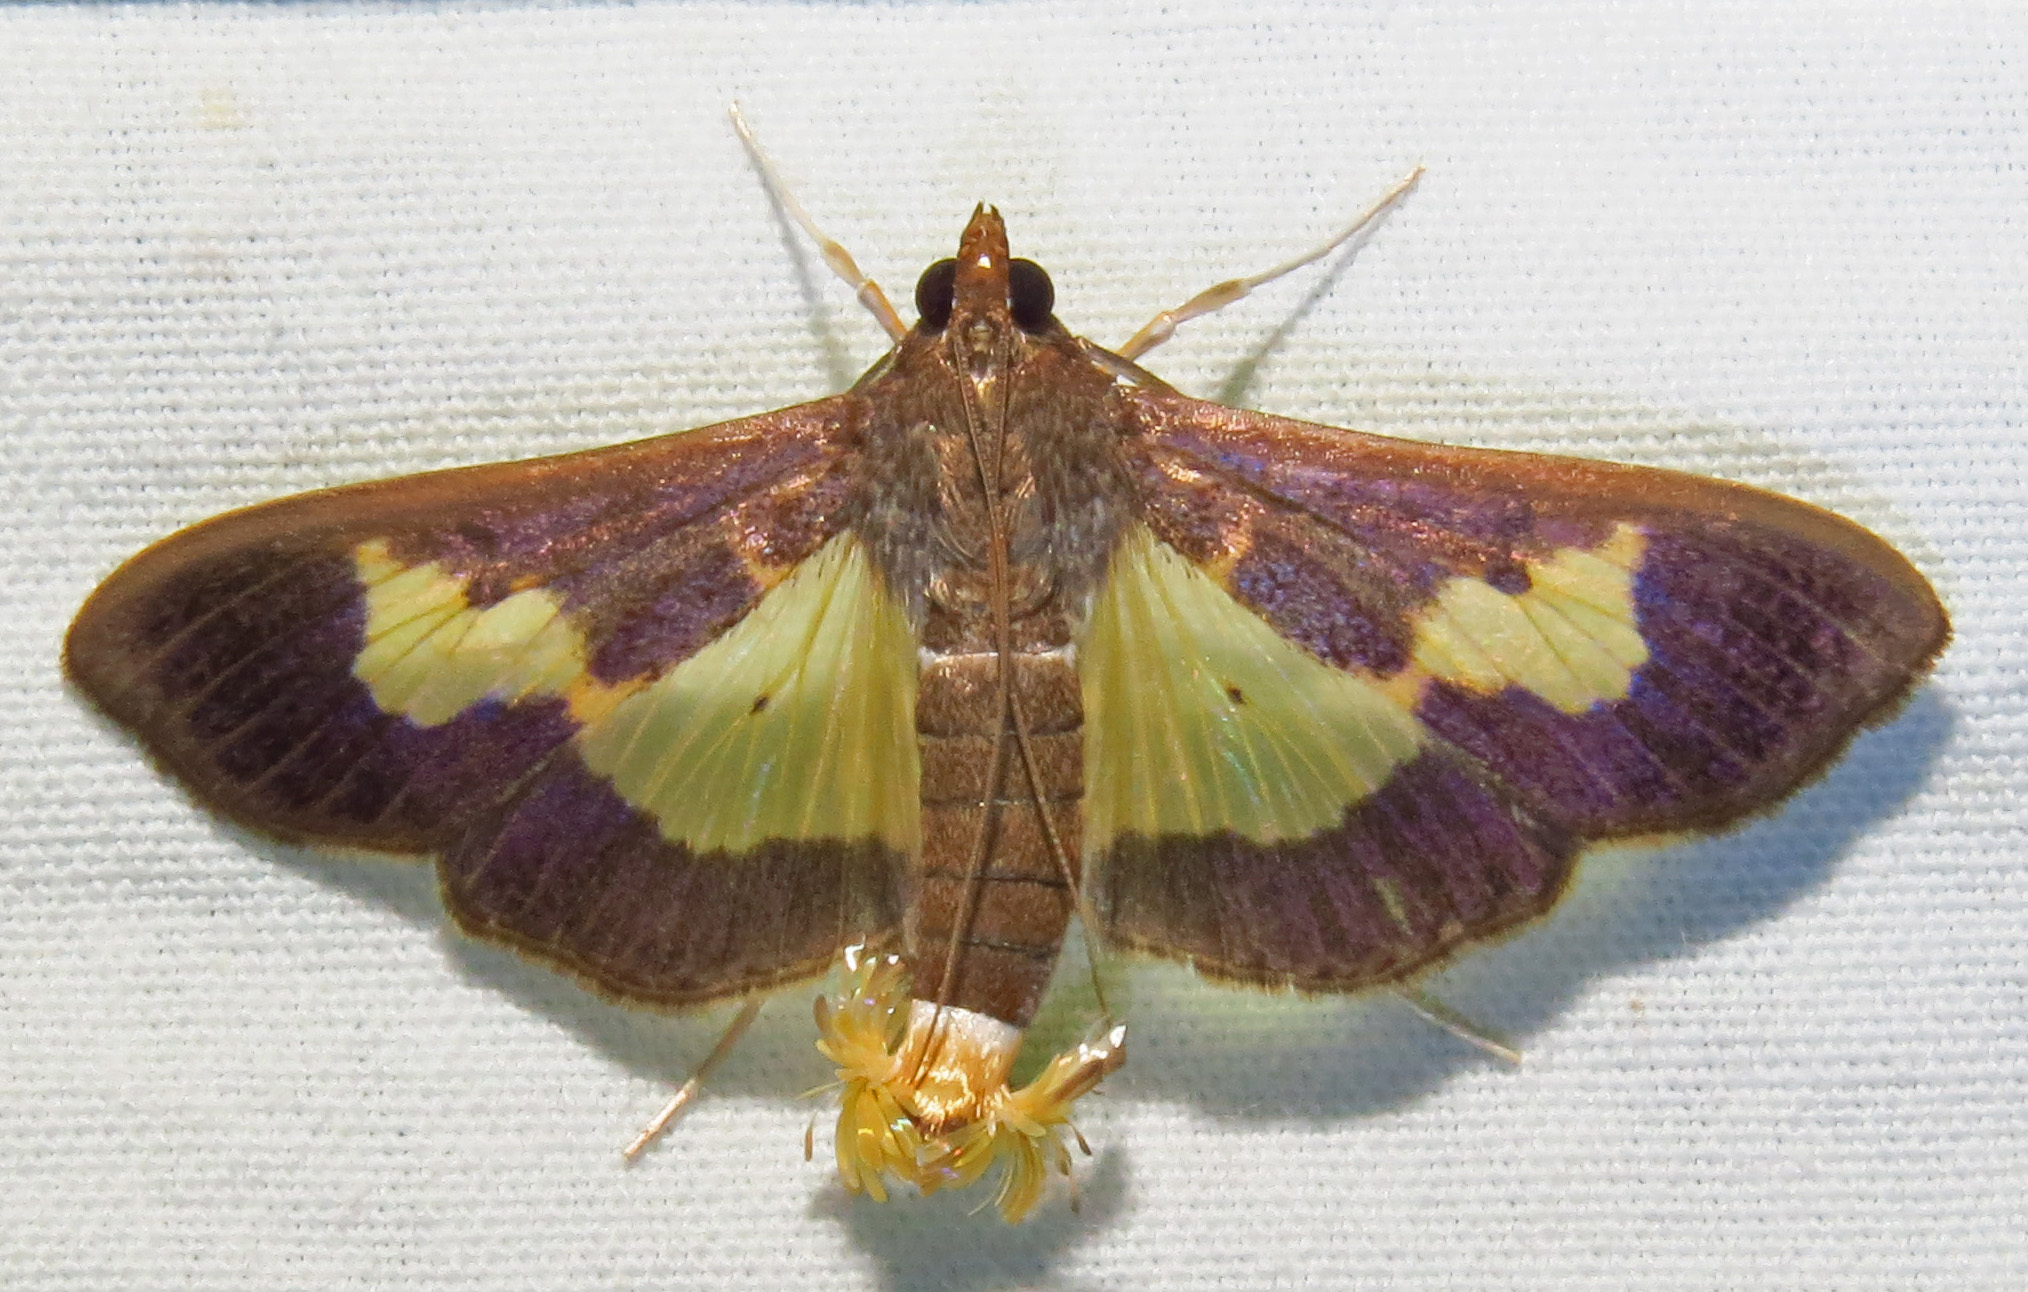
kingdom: Animalia
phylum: Arthropoda
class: Insecta
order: Lepidoptera
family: Crambidae
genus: Cryptographis
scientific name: Cryptographis nitidalis
